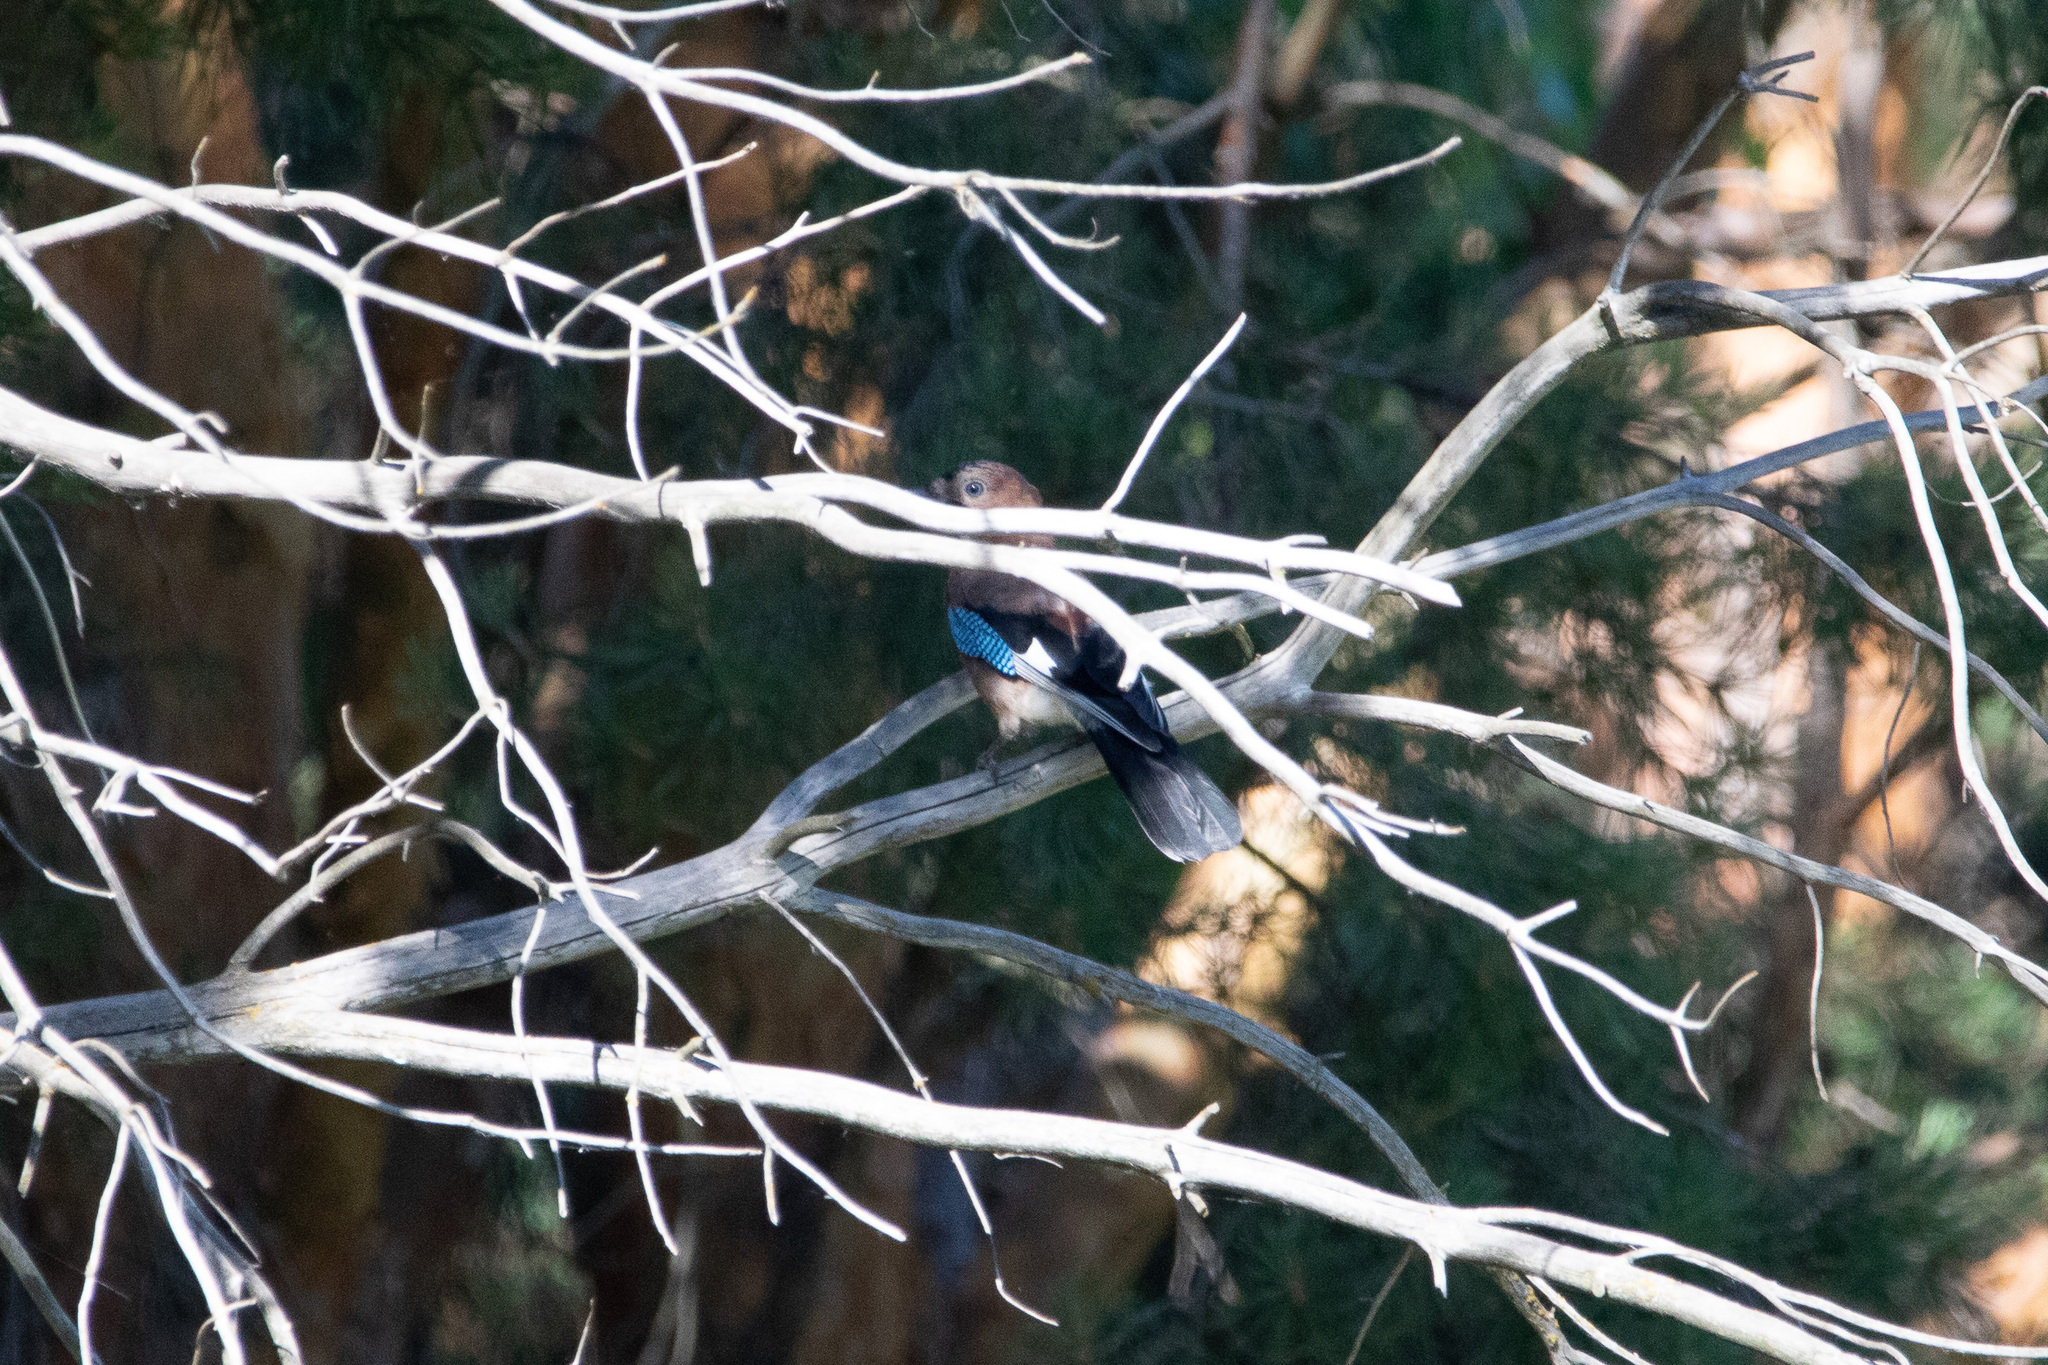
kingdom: Animalia
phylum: Chordata
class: Aves
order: Passeriformes
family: Corvidae
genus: Garrulus
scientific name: Garrulus glandarius
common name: Eurasian jay
